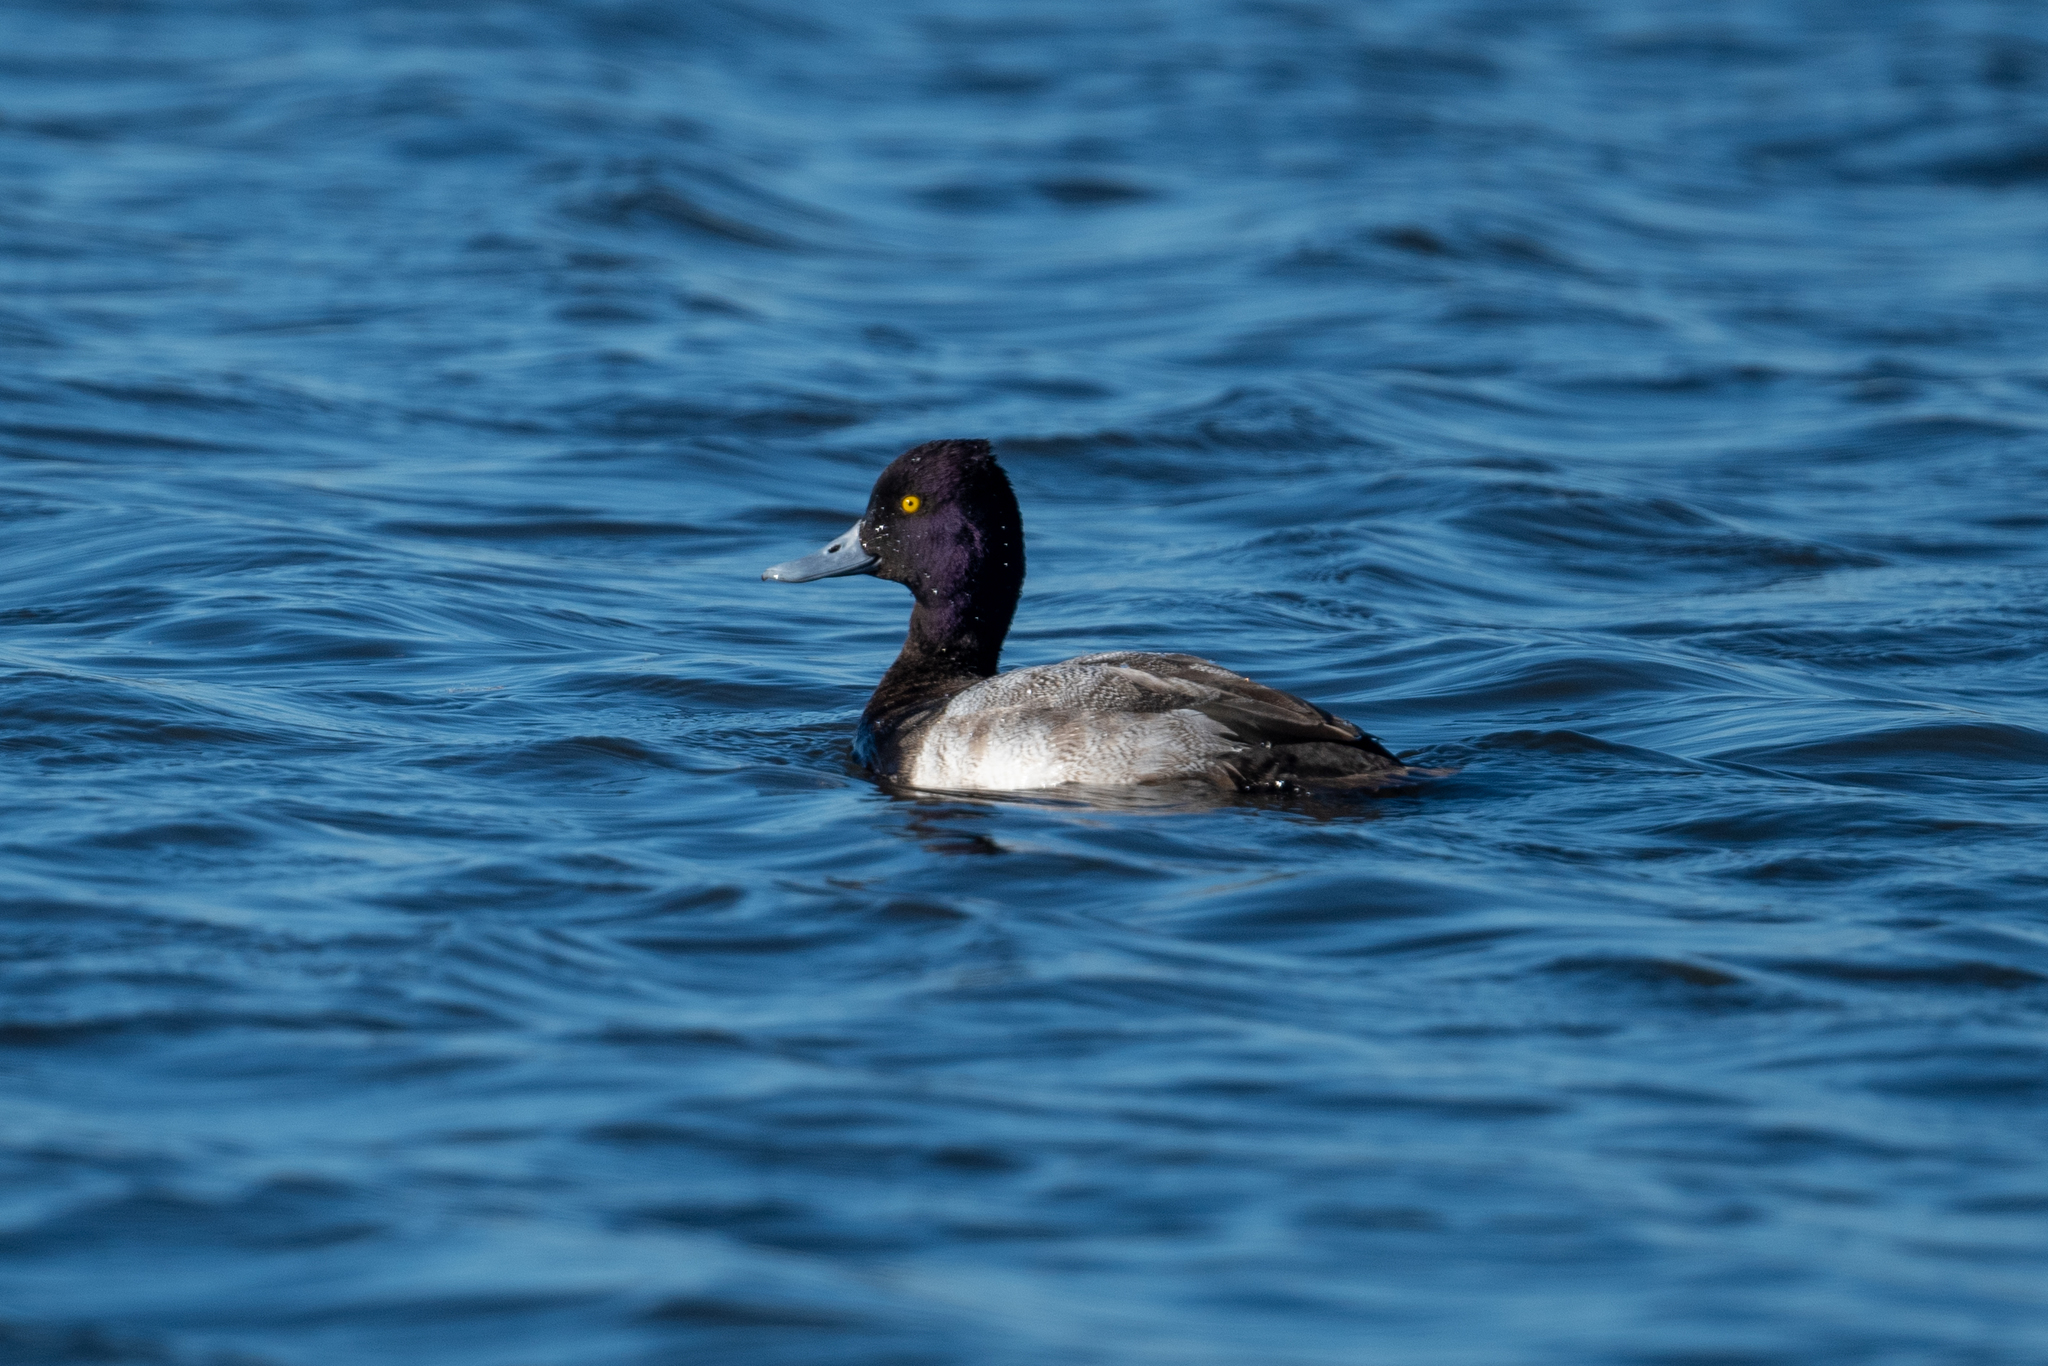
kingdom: Animalia
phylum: Chordata
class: Aves
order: Anseriformes
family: Anatidae
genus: Aythya
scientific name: Aythya affinis
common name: Lesser scaup
